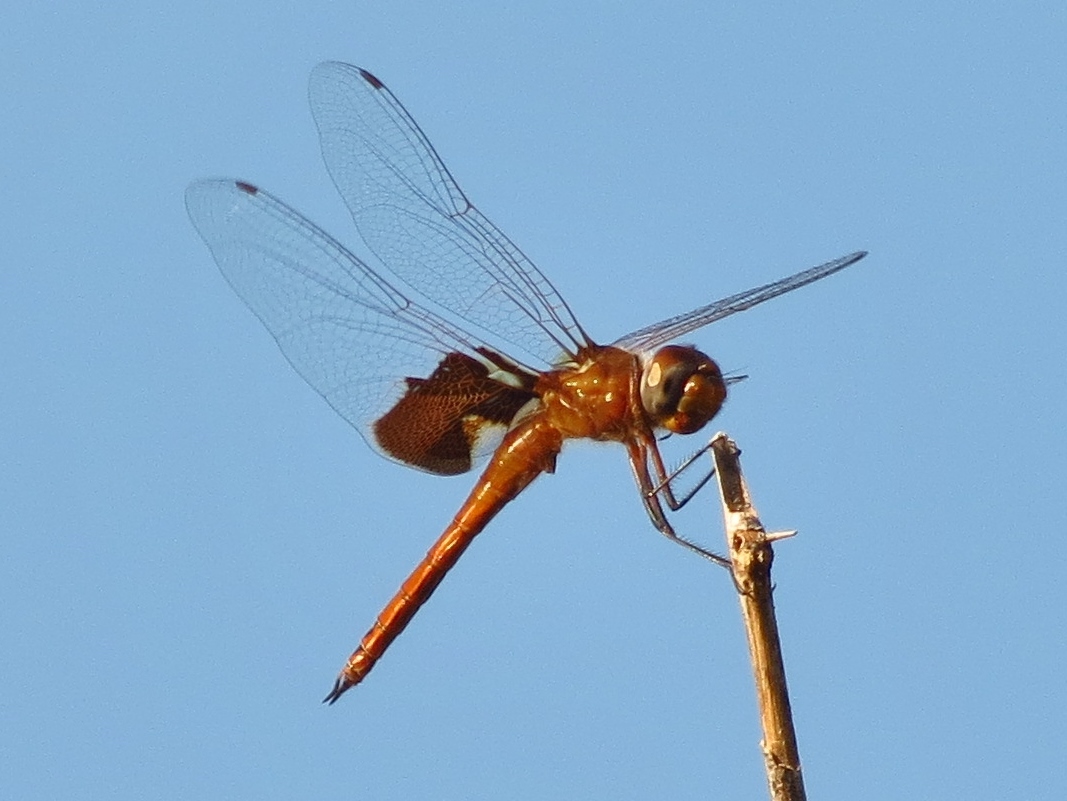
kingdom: Animalia
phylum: Arthropoda
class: Insecta
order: Odonata
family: Libellulidae
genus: Tramea
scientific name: Tramea onusta
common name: Red saddlebags
